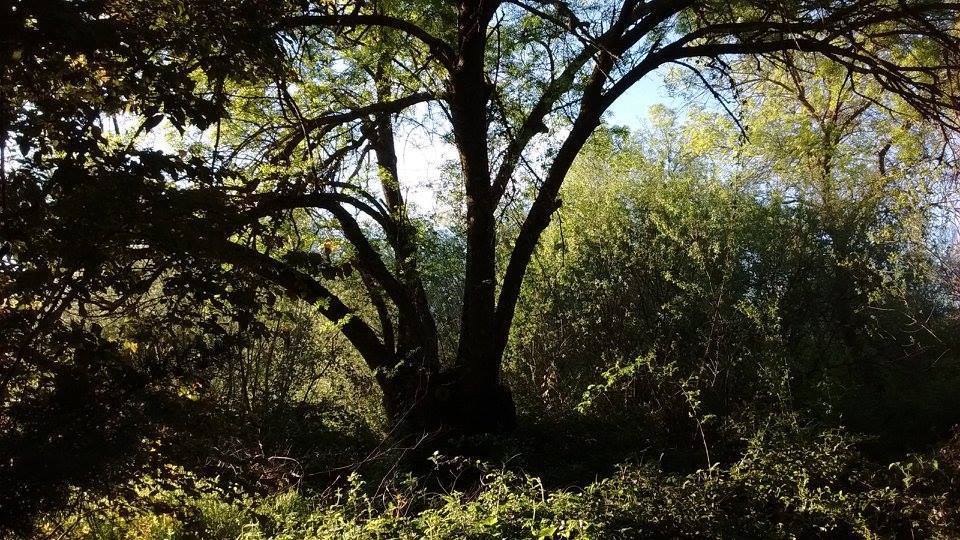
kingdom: Plantae
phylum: Tracheophyta
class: Magnoliopsida
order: Lamiales
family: Oleaceae
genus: Fraxinus
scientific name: Fraxinus angustifolia
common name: Narrow-leafed ash
